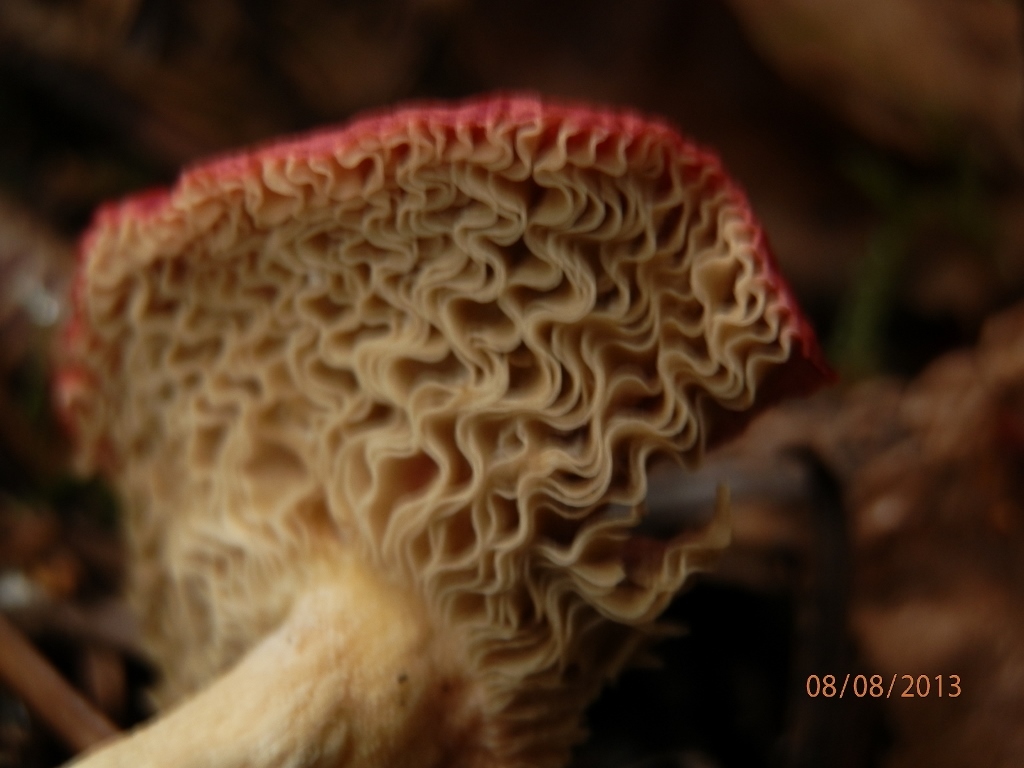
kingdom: Fungi
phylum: Basidiomycota
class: Agaricomycetes
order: Russulales
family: Russulaceae
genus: Russula
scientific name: Russula risigallina
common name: Golden brittlegill
